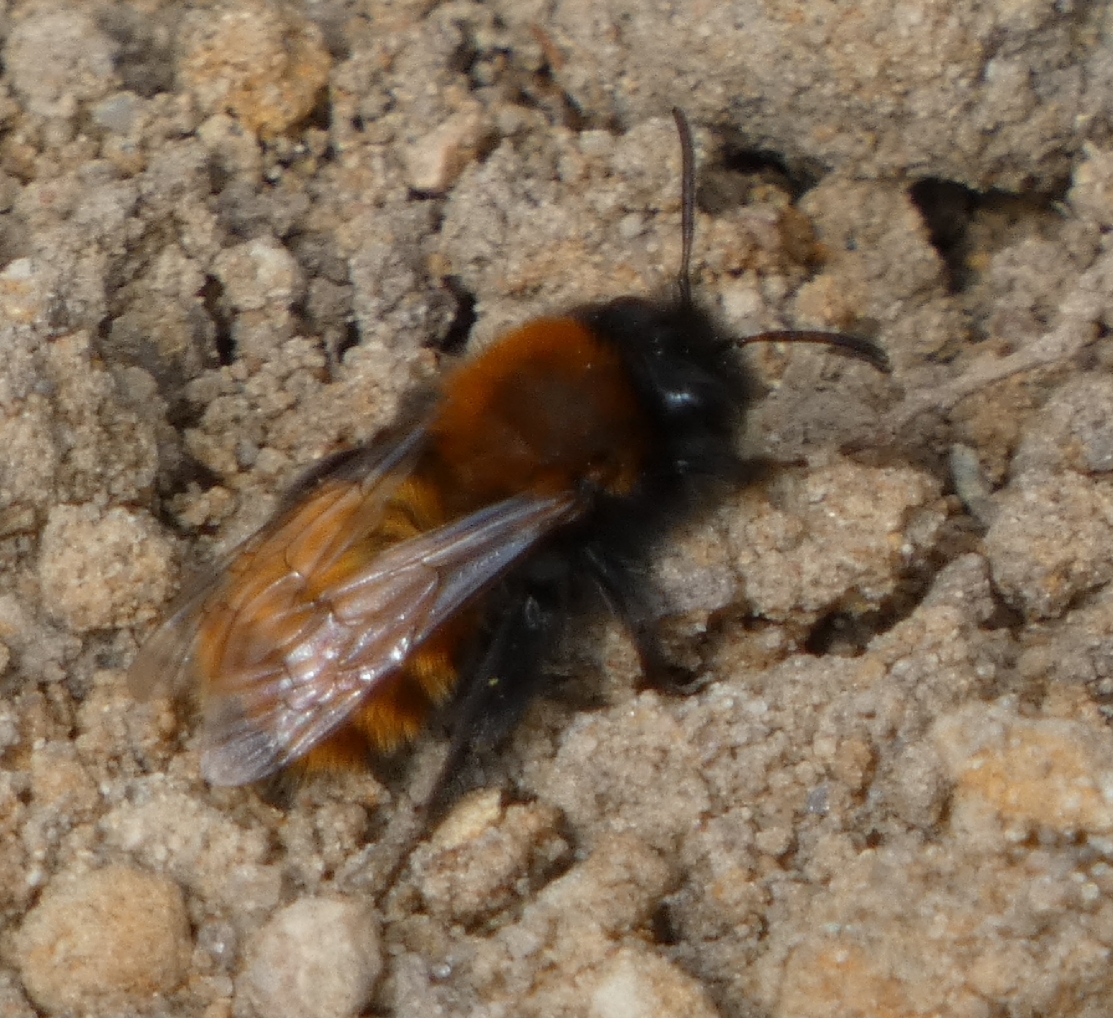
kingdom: Animalia
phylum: Arthropoda
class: Insecta
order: Hymenoptera
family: Andrenidae
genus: Andrena
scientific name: Andrena fulva
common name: Tawny mining bee
